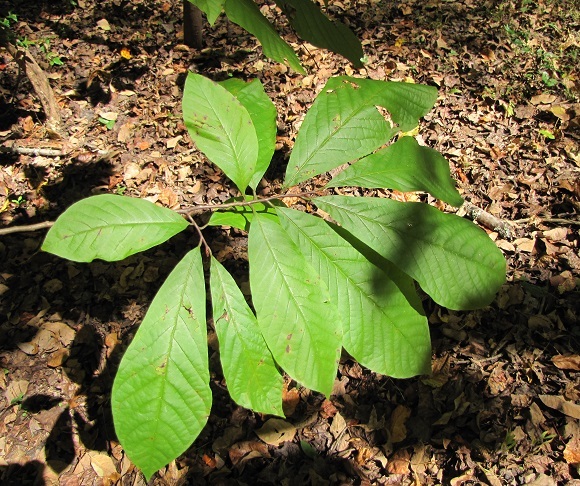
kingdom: Plantae
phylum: Tracheophyta
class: Magnoliopsida
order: Magnoliales
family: Annonaceae
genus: Asimina
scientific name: Asimina triloba
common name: Dog-banana
